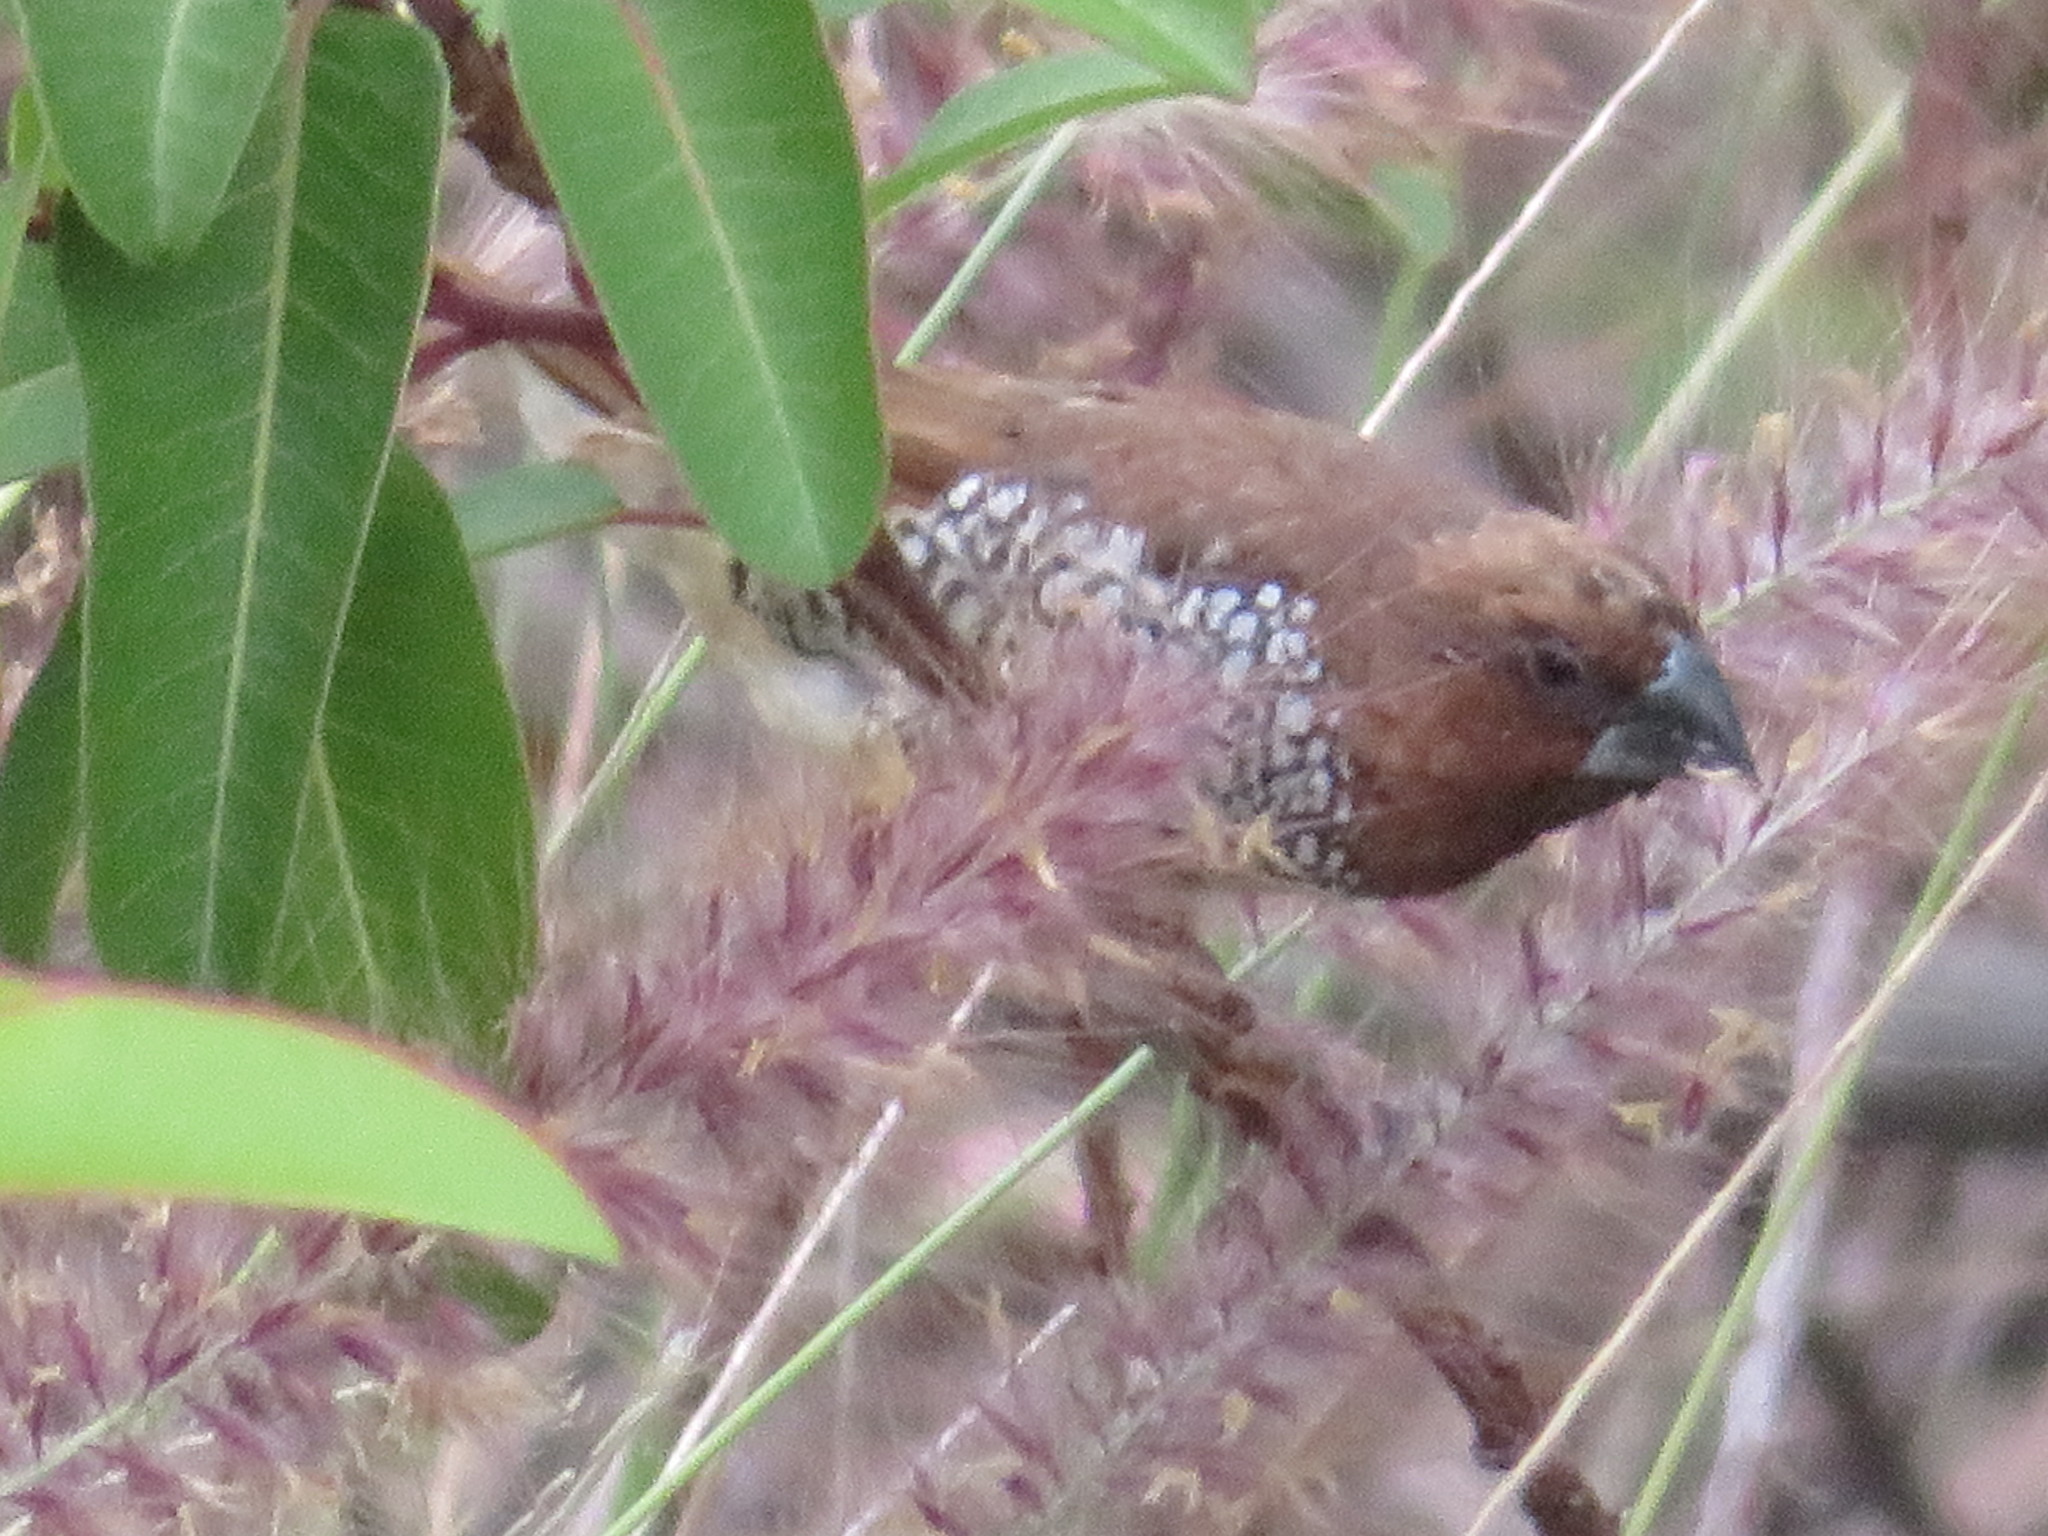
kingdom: Animalia
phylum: Chordata
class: Aves
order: Passeriformes
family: Estrildidae
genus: Lonchura
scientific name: Lonchura punctulata
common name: Scaly-breasted munia
